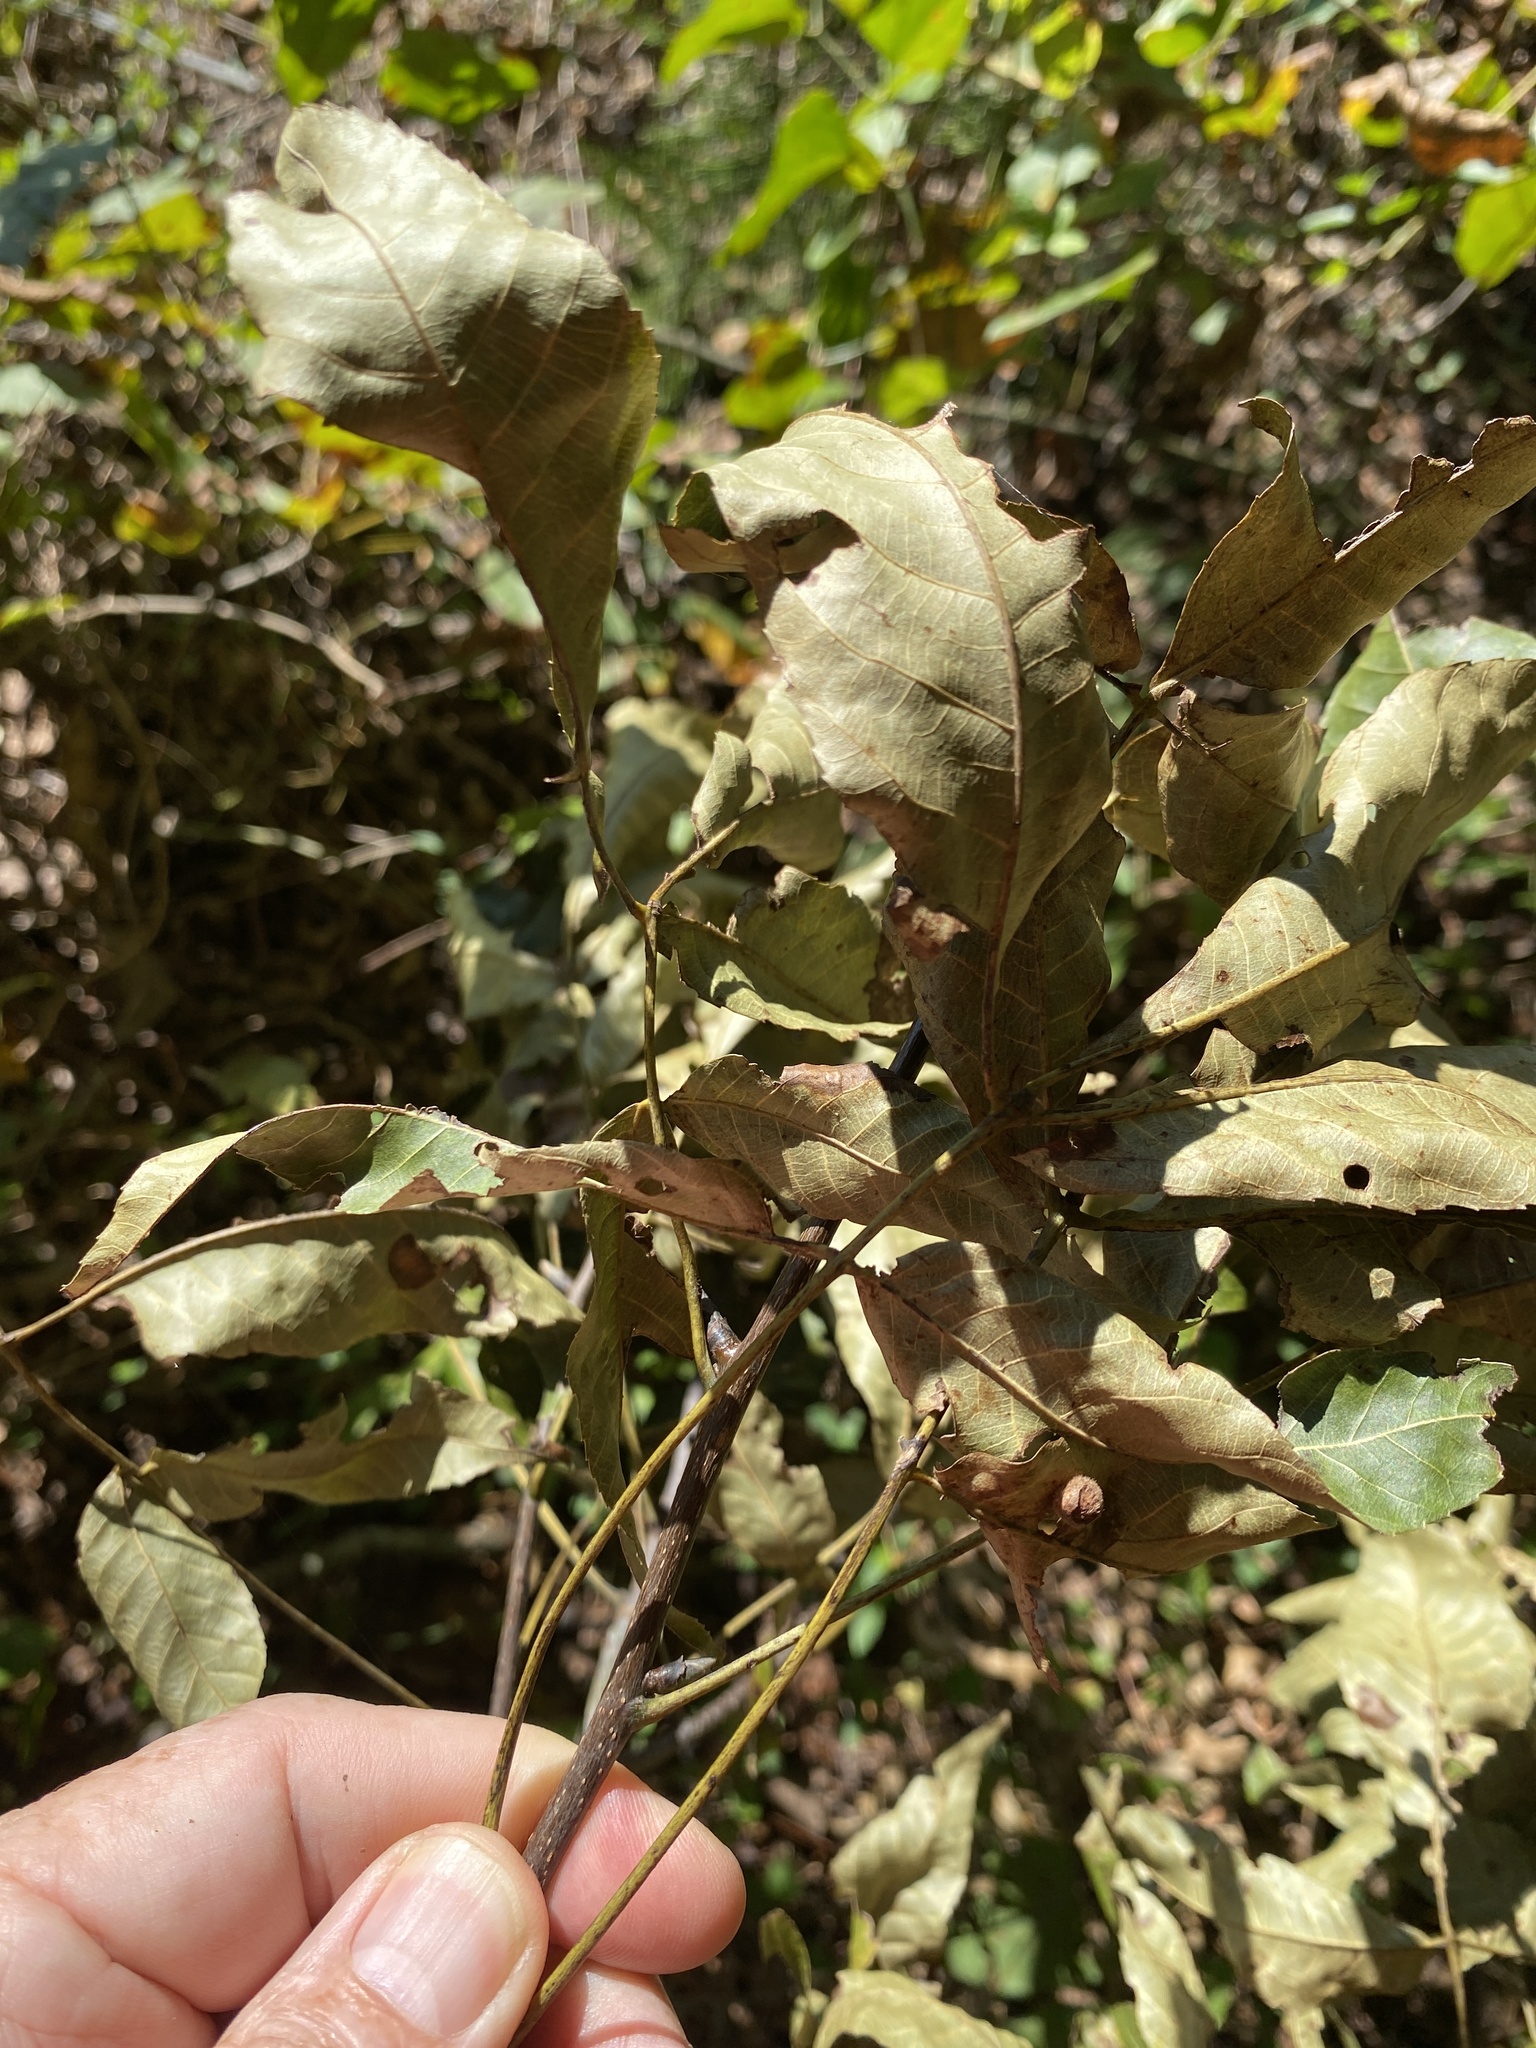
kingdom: Plantae
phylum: Tracheophyta
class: Magnoliopsida
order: Fagales
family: Juglandaceae
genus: Carya
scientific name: Carya carolinae-septentrionalis
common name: Carolina hickory
